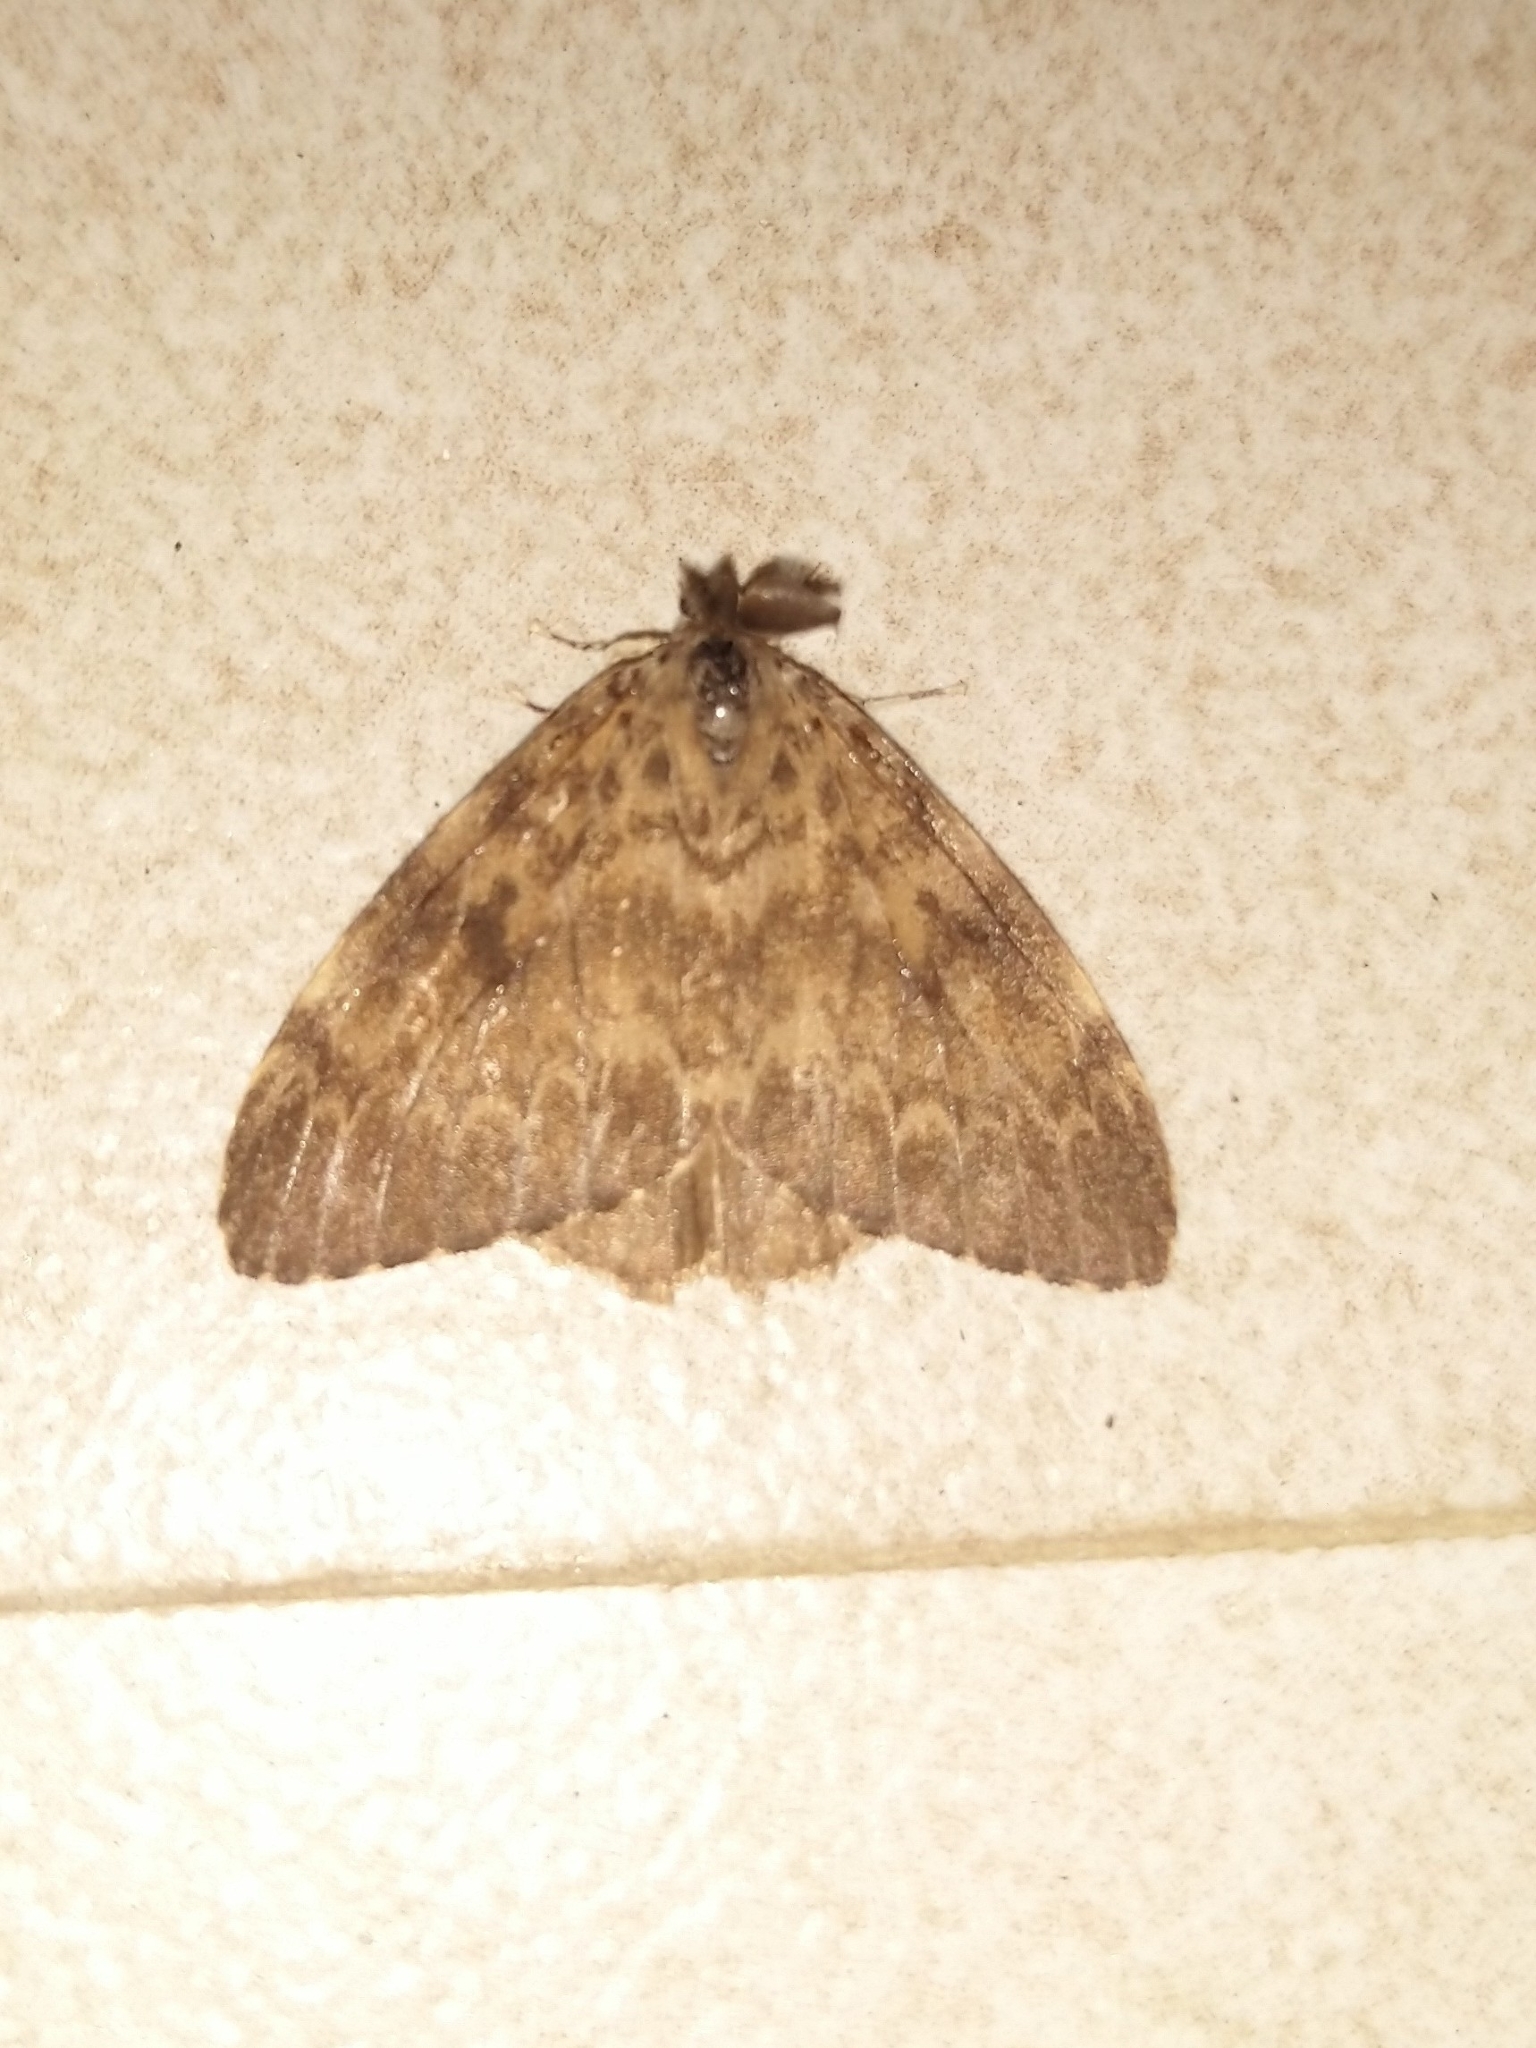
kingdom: Animalia
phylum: Arthropoda
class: Insecta
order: Lepidoptera
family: Erebidae
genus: Lymantria
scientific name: Lymantria ampla
